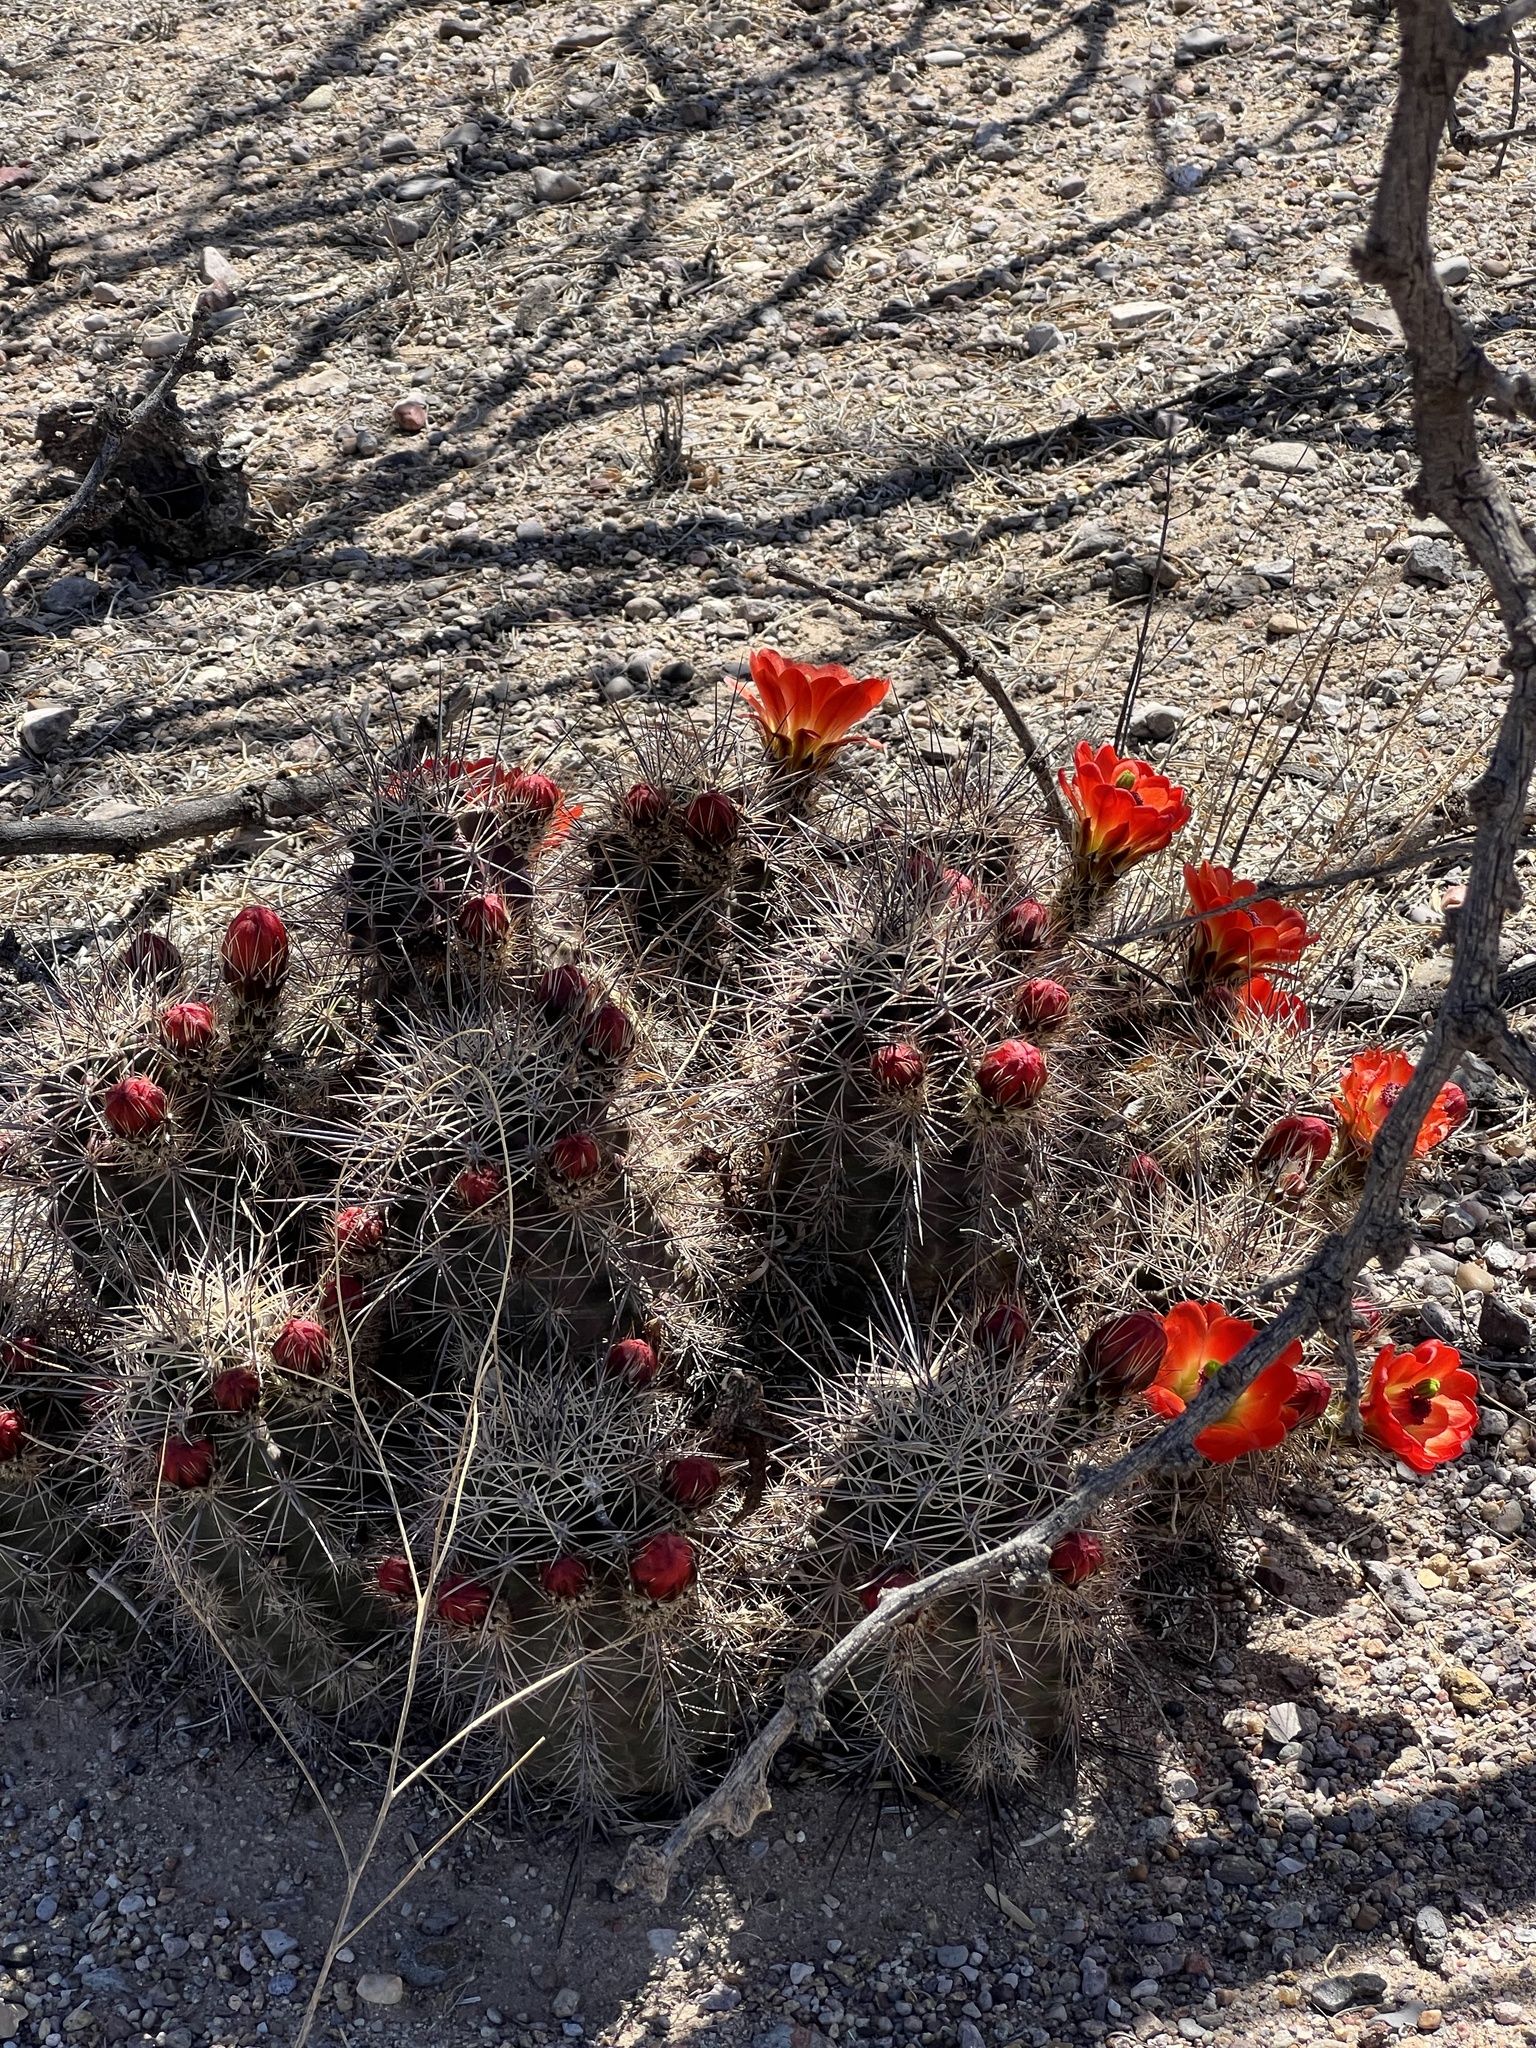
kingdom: Plantae
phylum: Tracheophyta
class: Magnoliopsida
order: Caryophyllales
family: Cactaceae
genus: Echinocereus
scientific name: Echinocereus coccineus
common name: Scarlet hedgehog cactus
